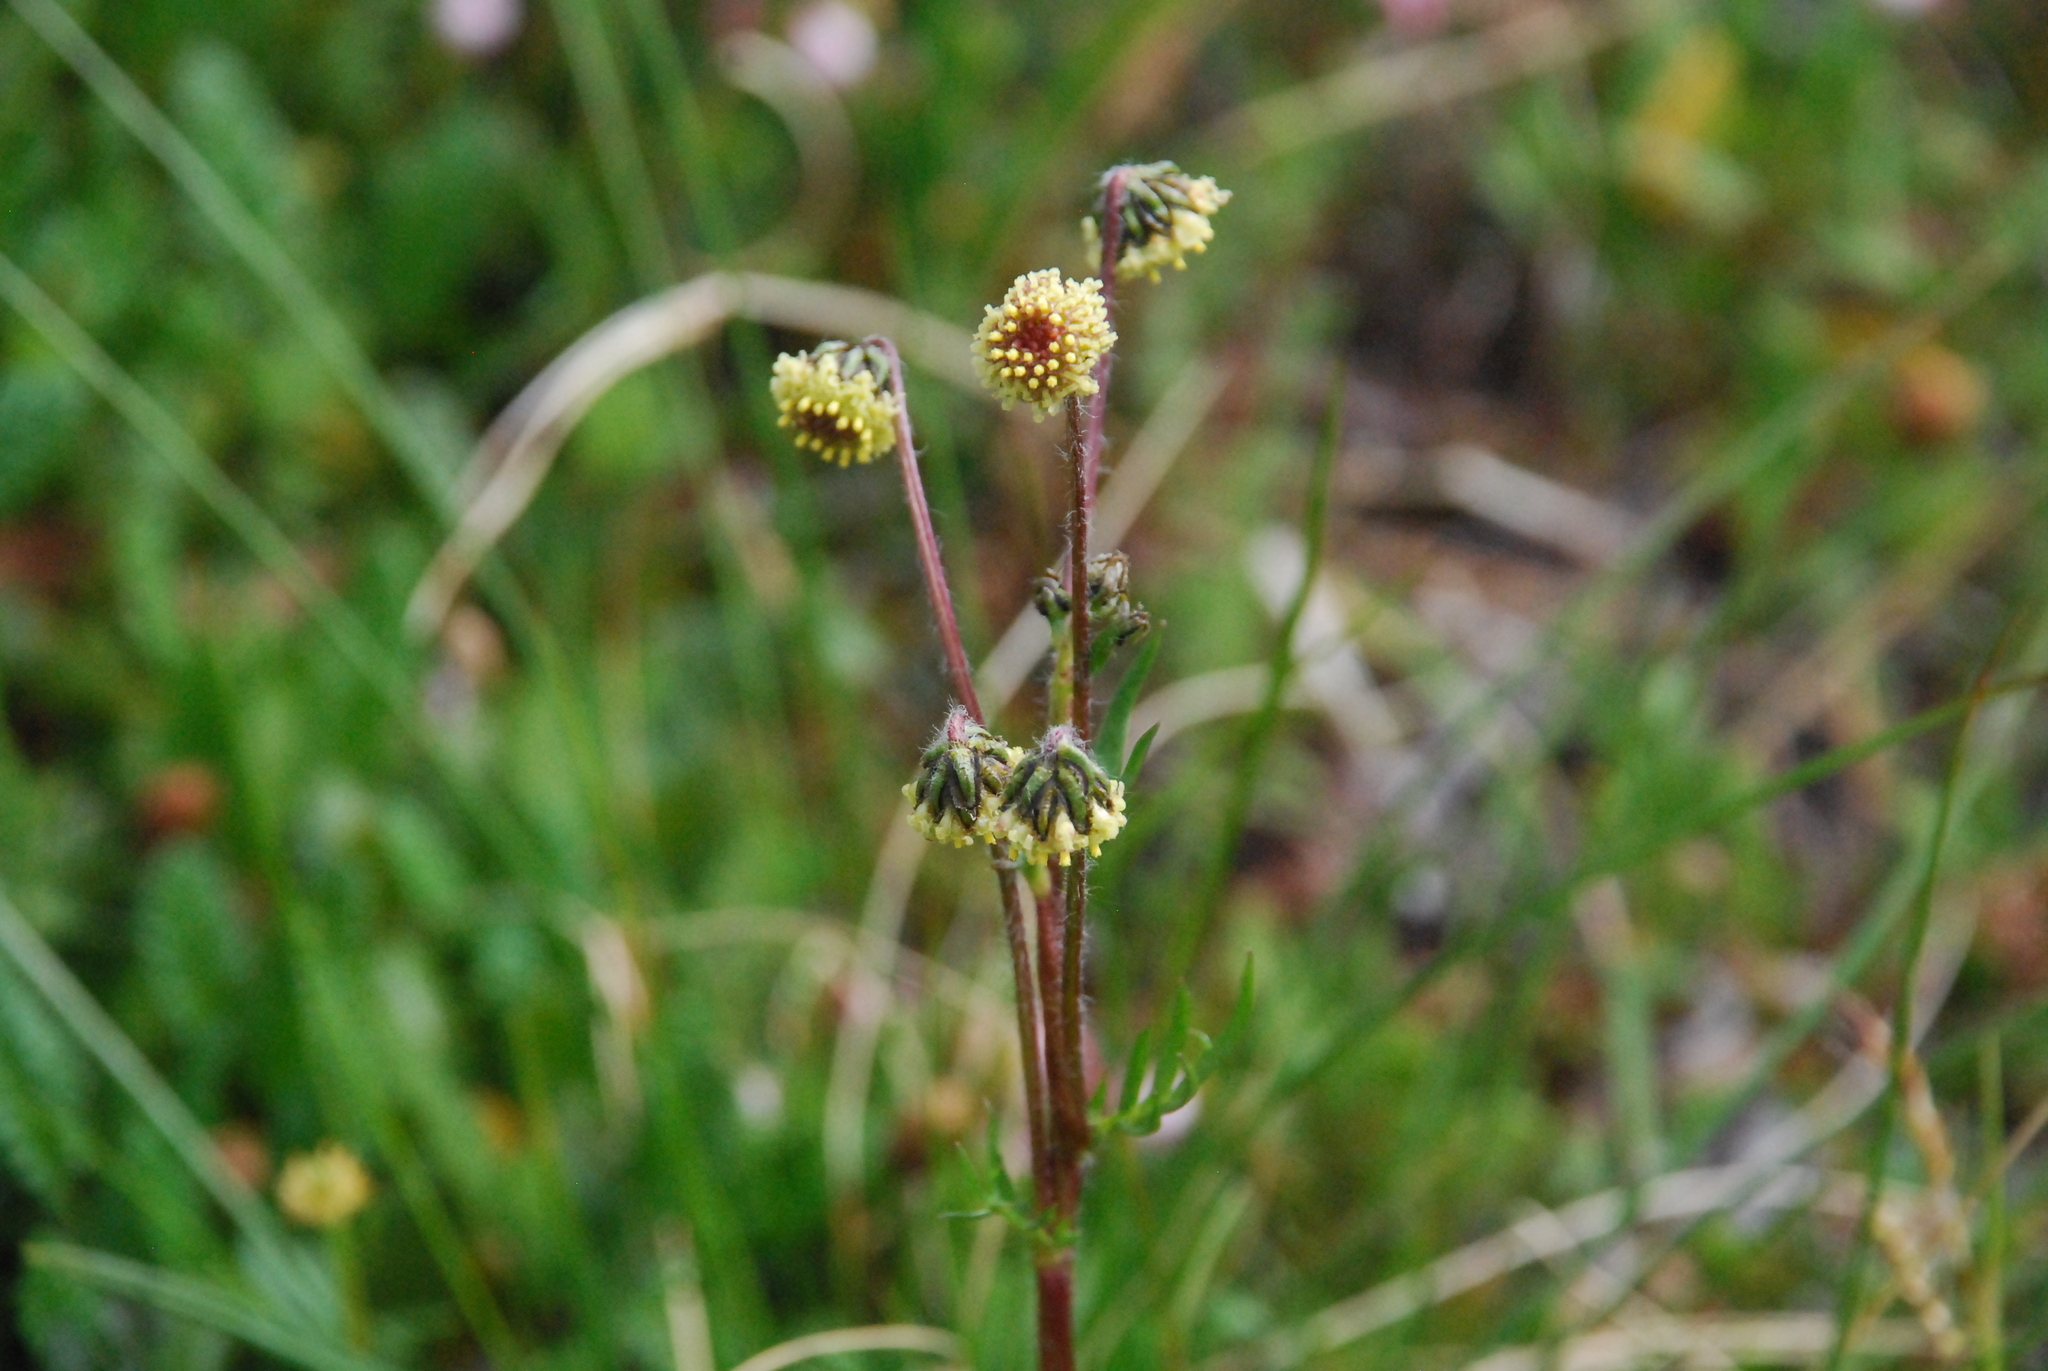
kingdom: Plantae
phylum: Tracheophyta
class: Magnoliopsida
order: Asterales
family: Asteraceae
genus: Artemisia
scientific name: Artemisia arctica
